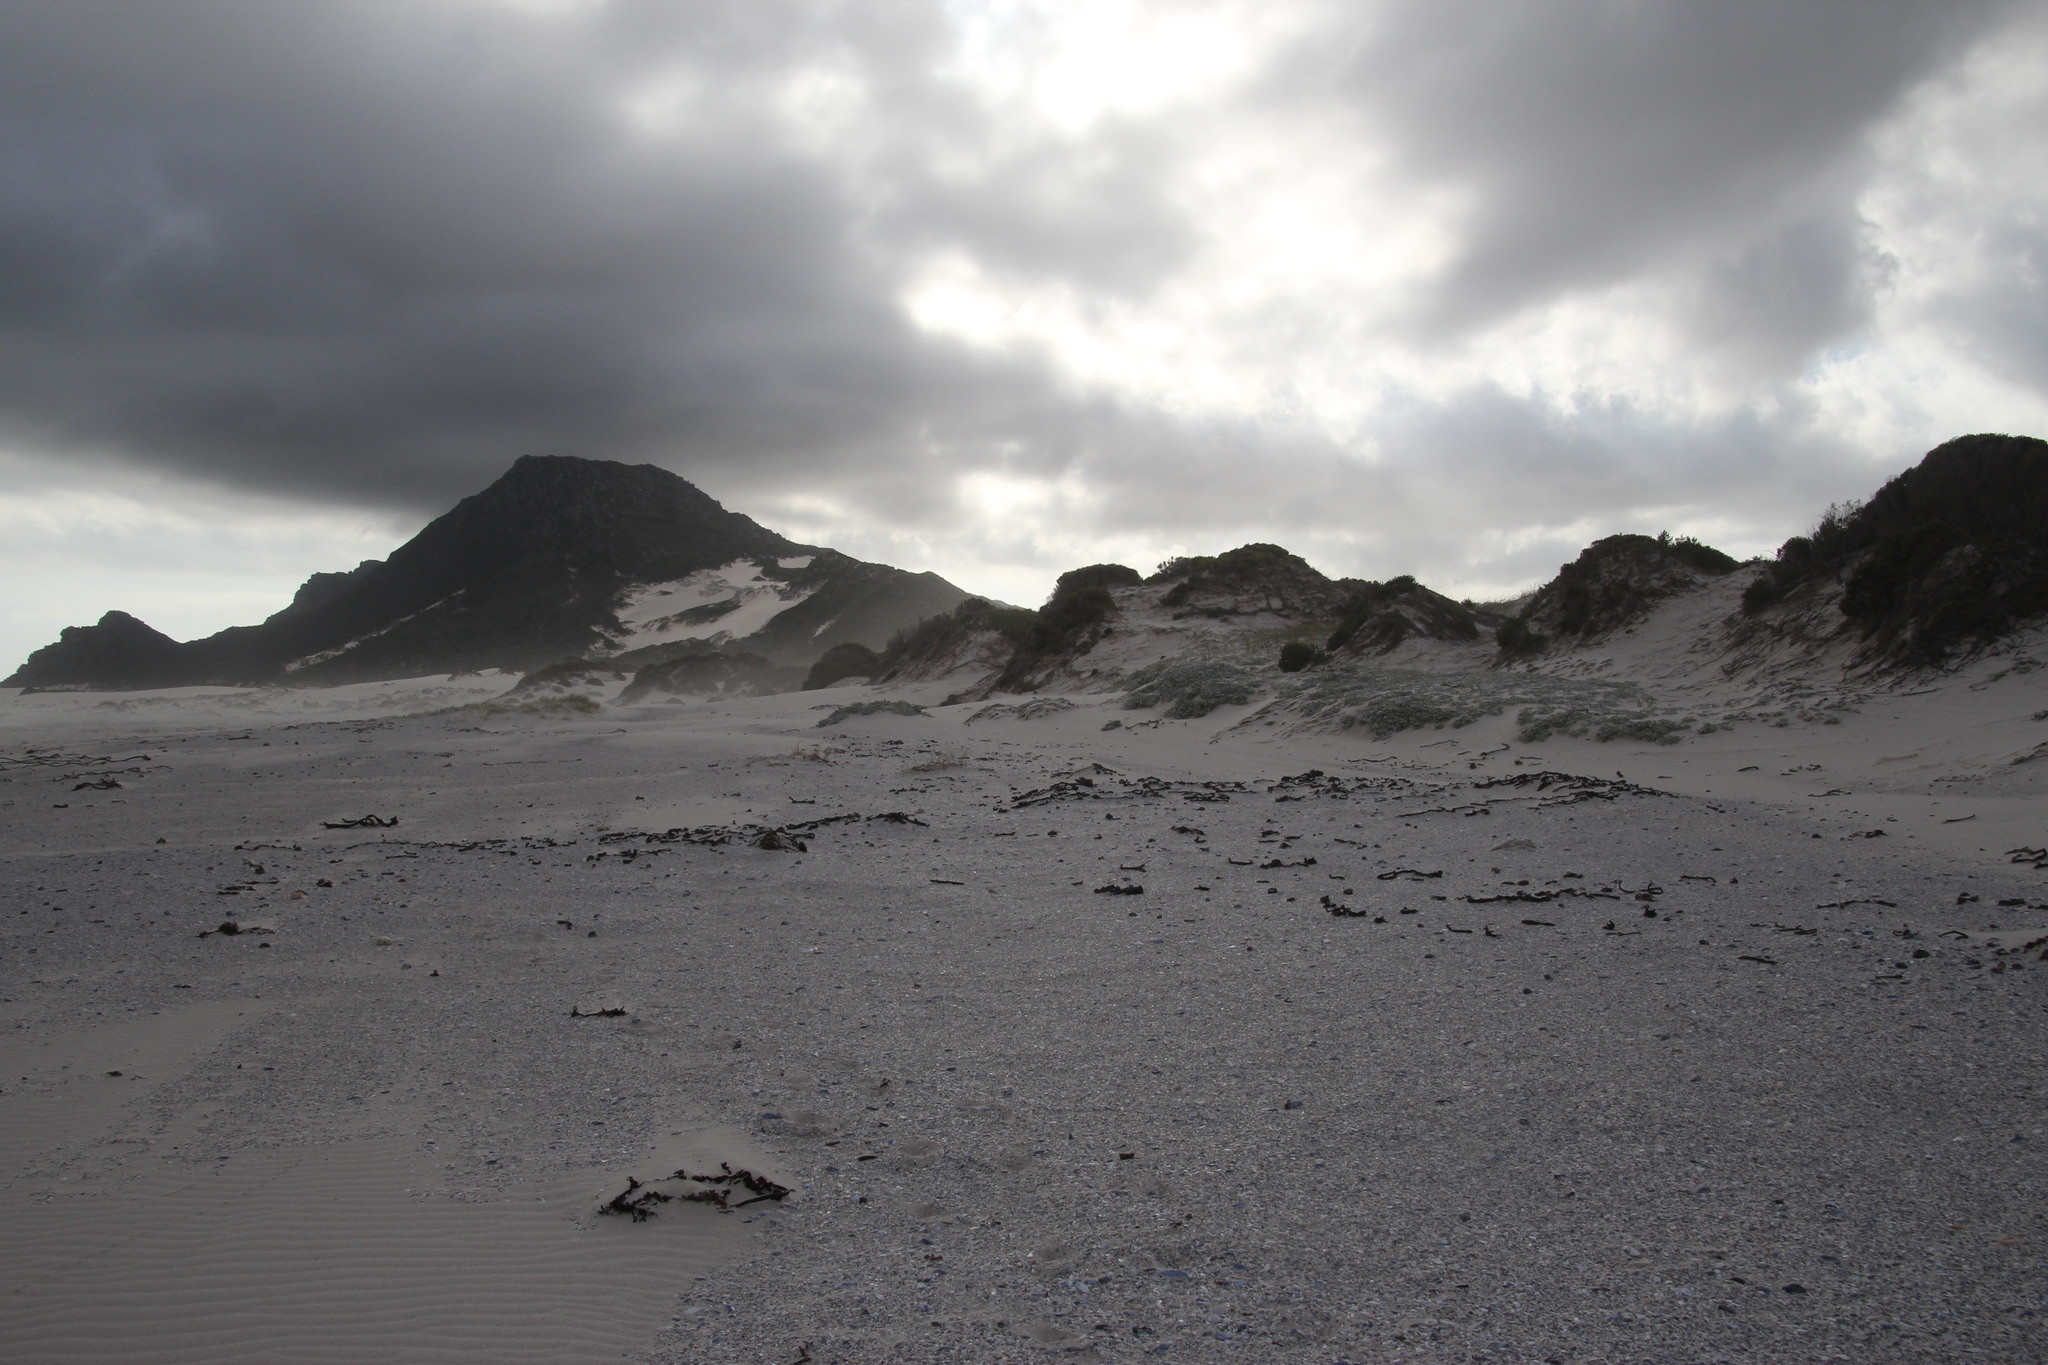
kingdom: Animalia
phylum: Chordata
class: Aves
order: Charadriiformes
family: Charadriidae
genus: Anarhynchus
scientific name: Anarhynchus
